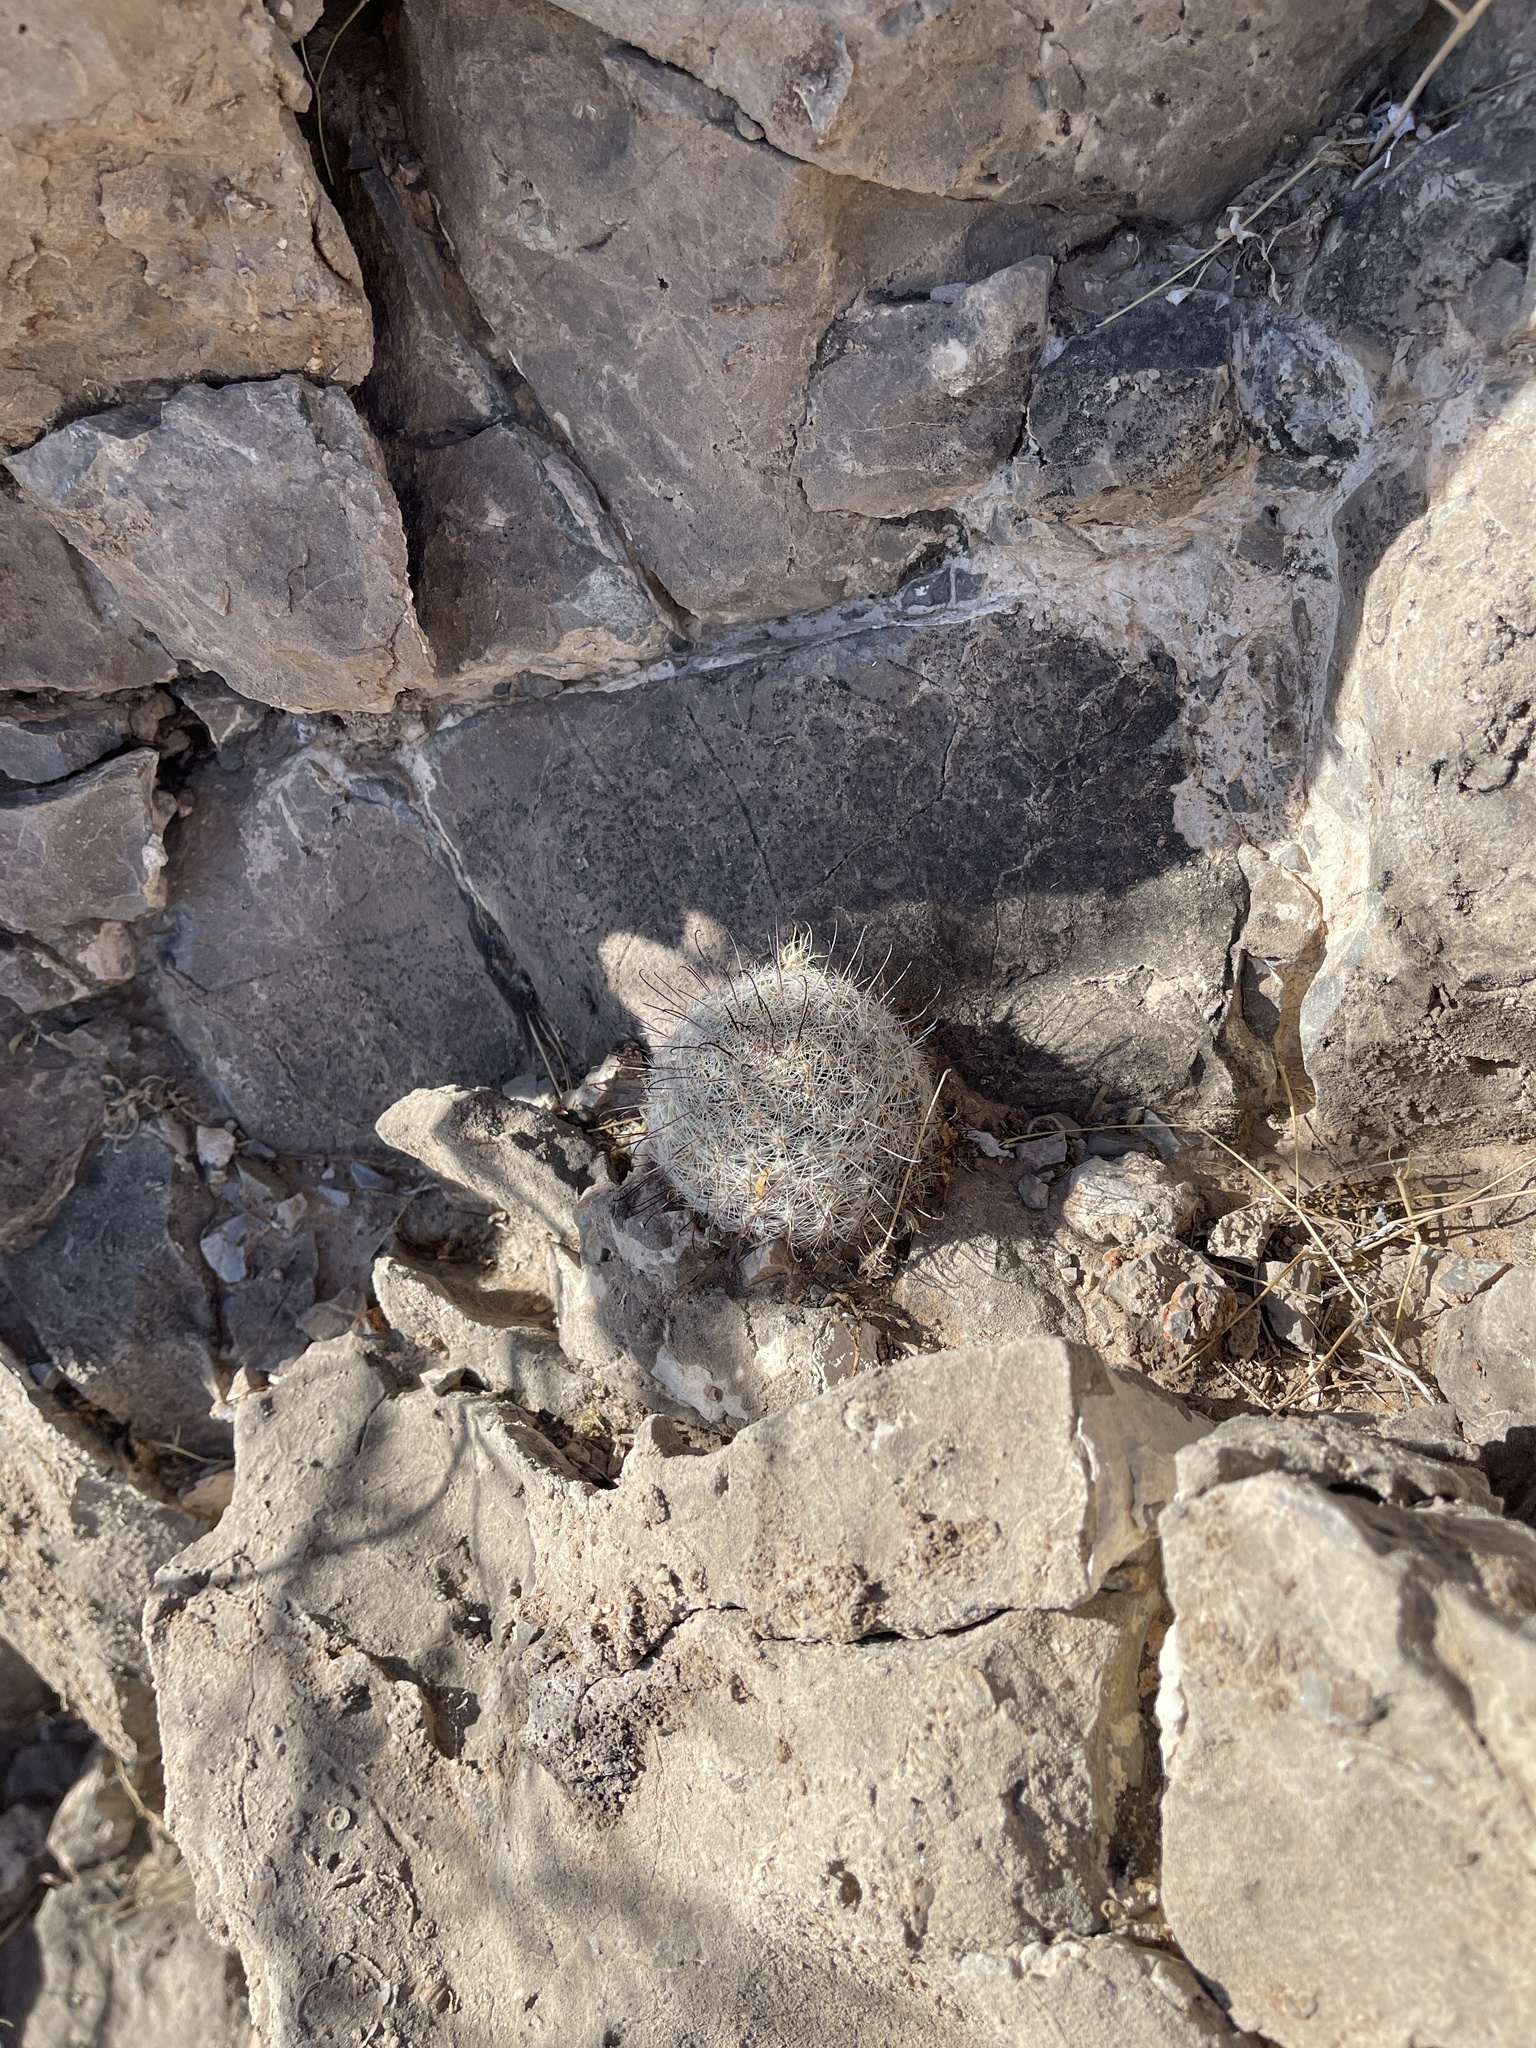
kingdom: Plantae
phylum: Tracheophyta
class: Magnoliopsida
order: Caryophyllales
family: Cactaceae
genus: Cochemiea
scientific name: Cochemiea grahamii
